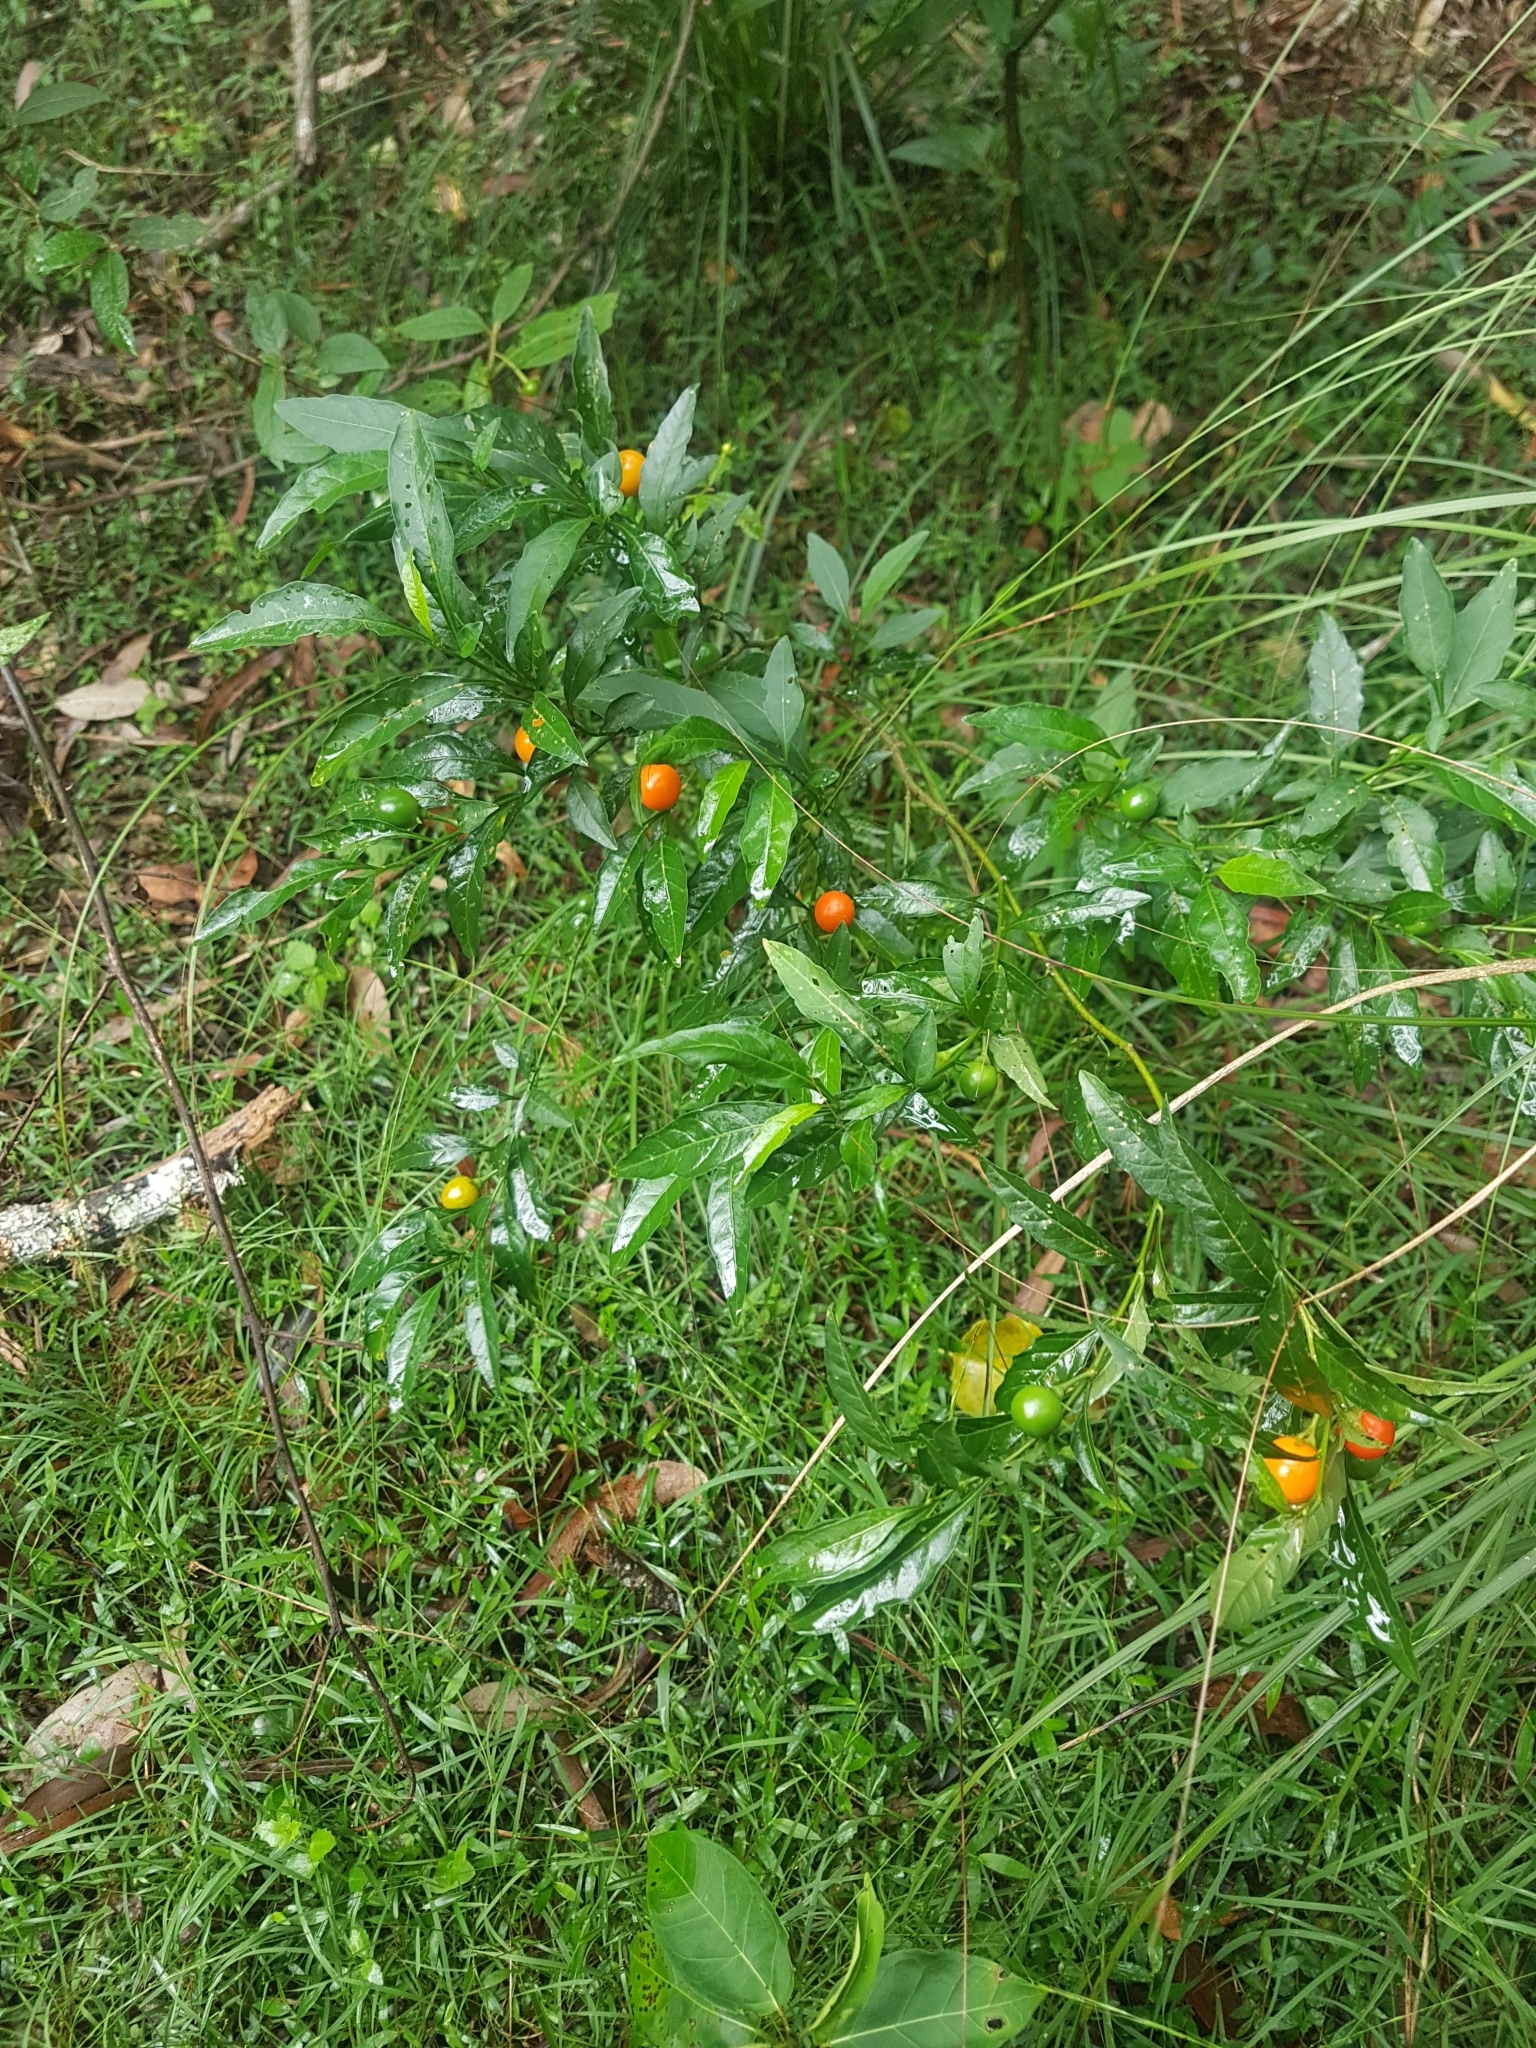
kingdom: Plantae
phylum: Tracheophyta
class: Magnoliopsida
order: Solanales
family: Solanaceae
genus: Solanum
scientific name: Solanum pseudocapsicum
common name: Jerusalem cherry
